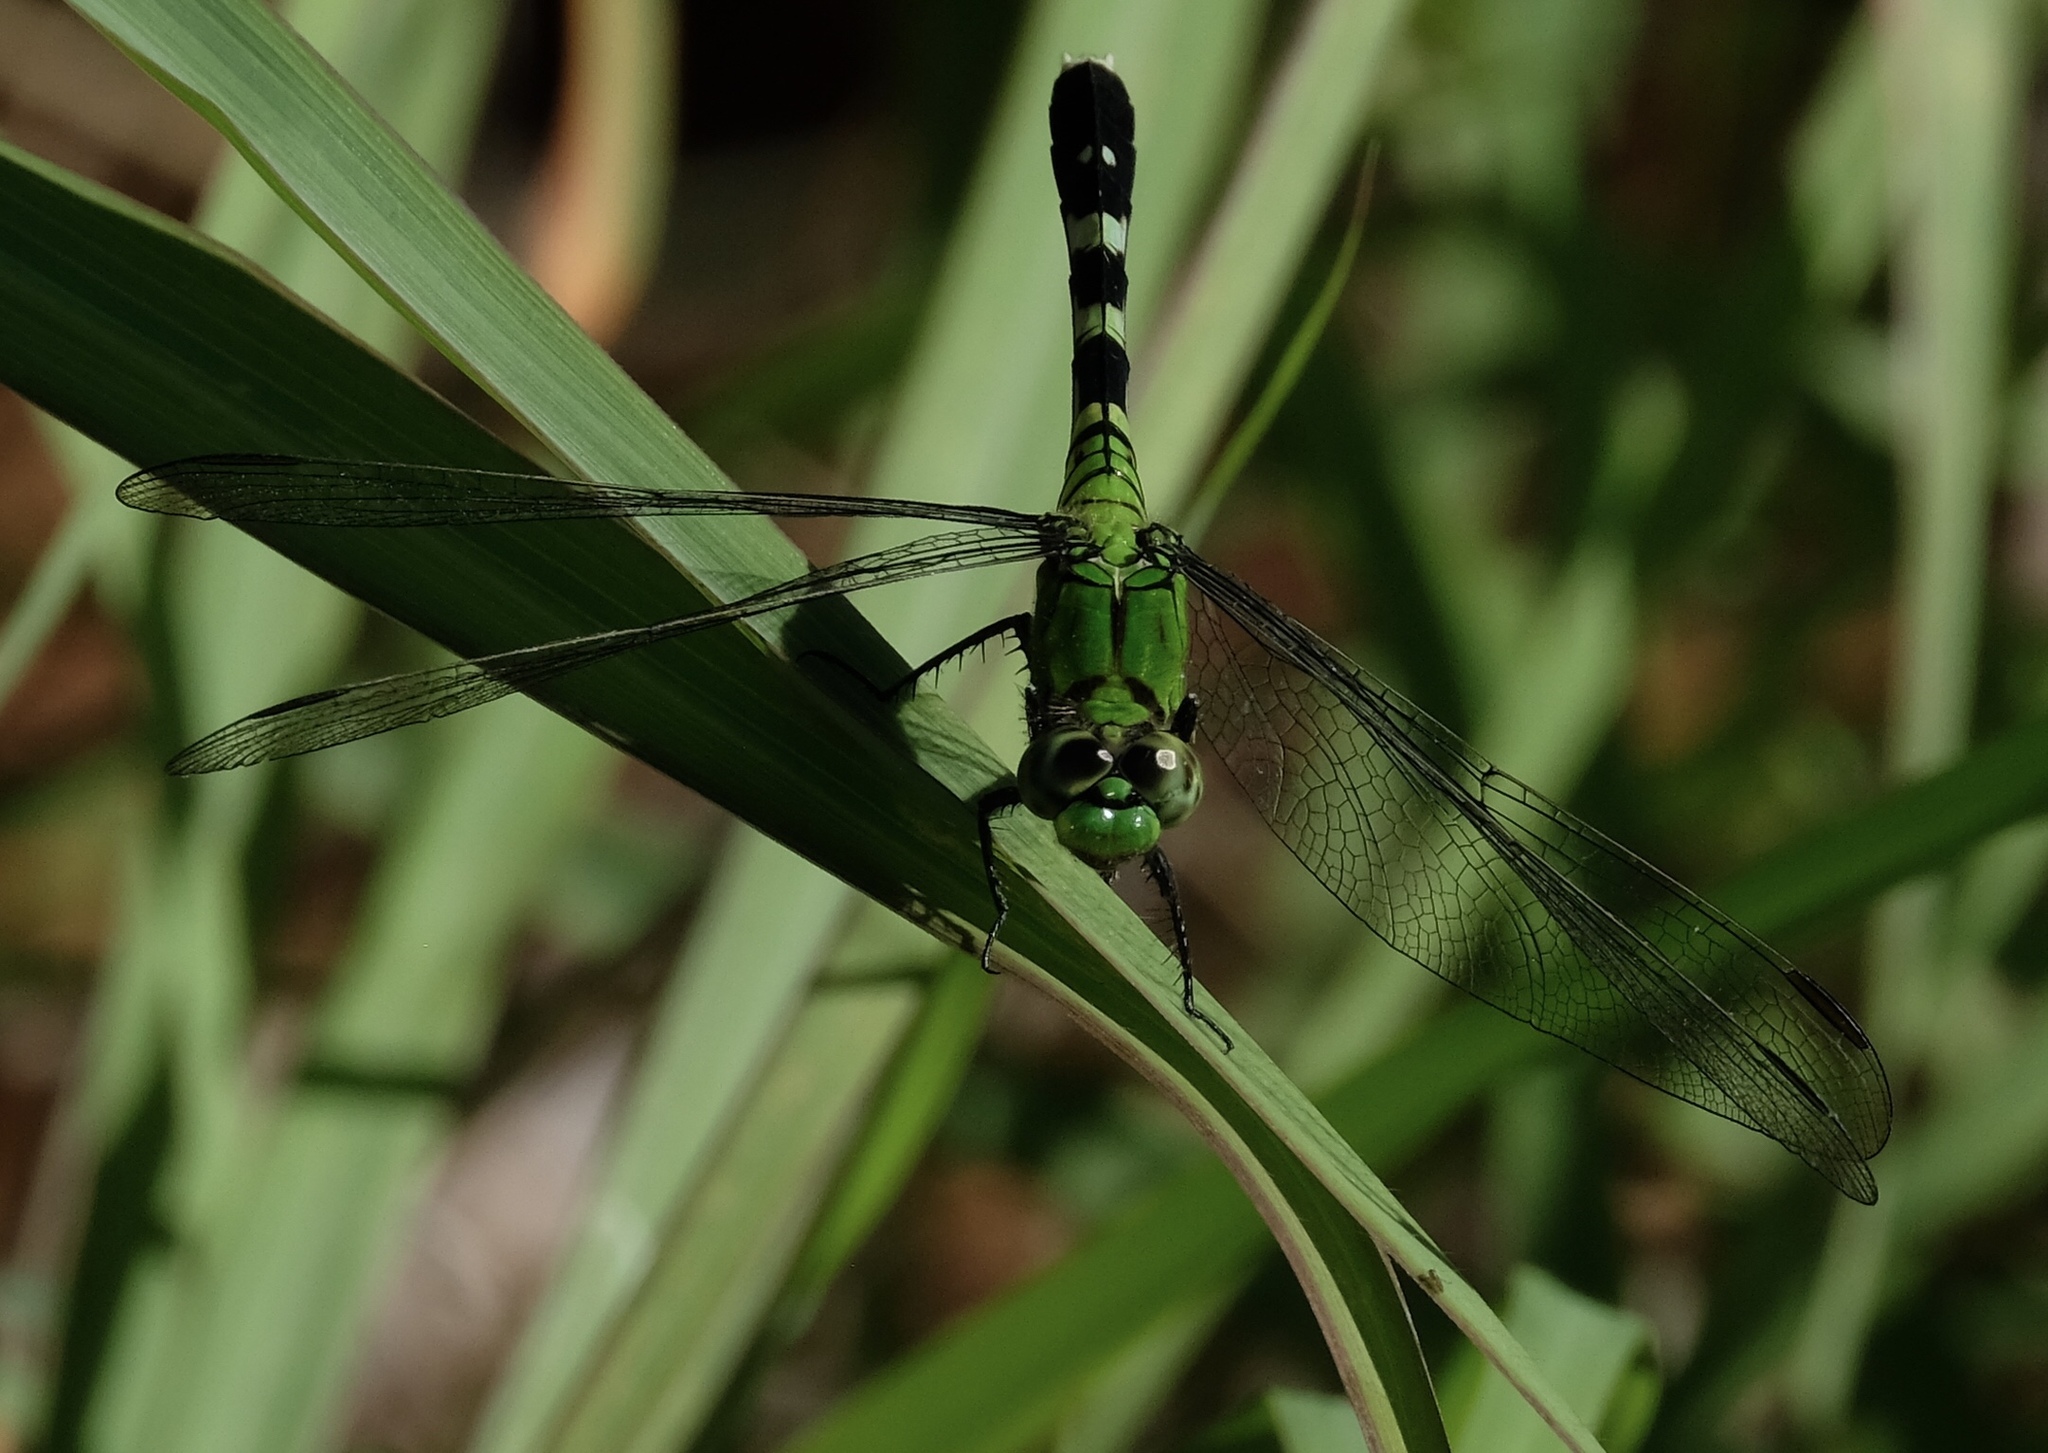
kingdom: Animalia
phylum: Arthropoda
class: Insecta
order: Odonata
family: Libellulidae
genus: Erythemis
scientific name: Erythemis simplicicollis
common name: Eastern pondhawk
